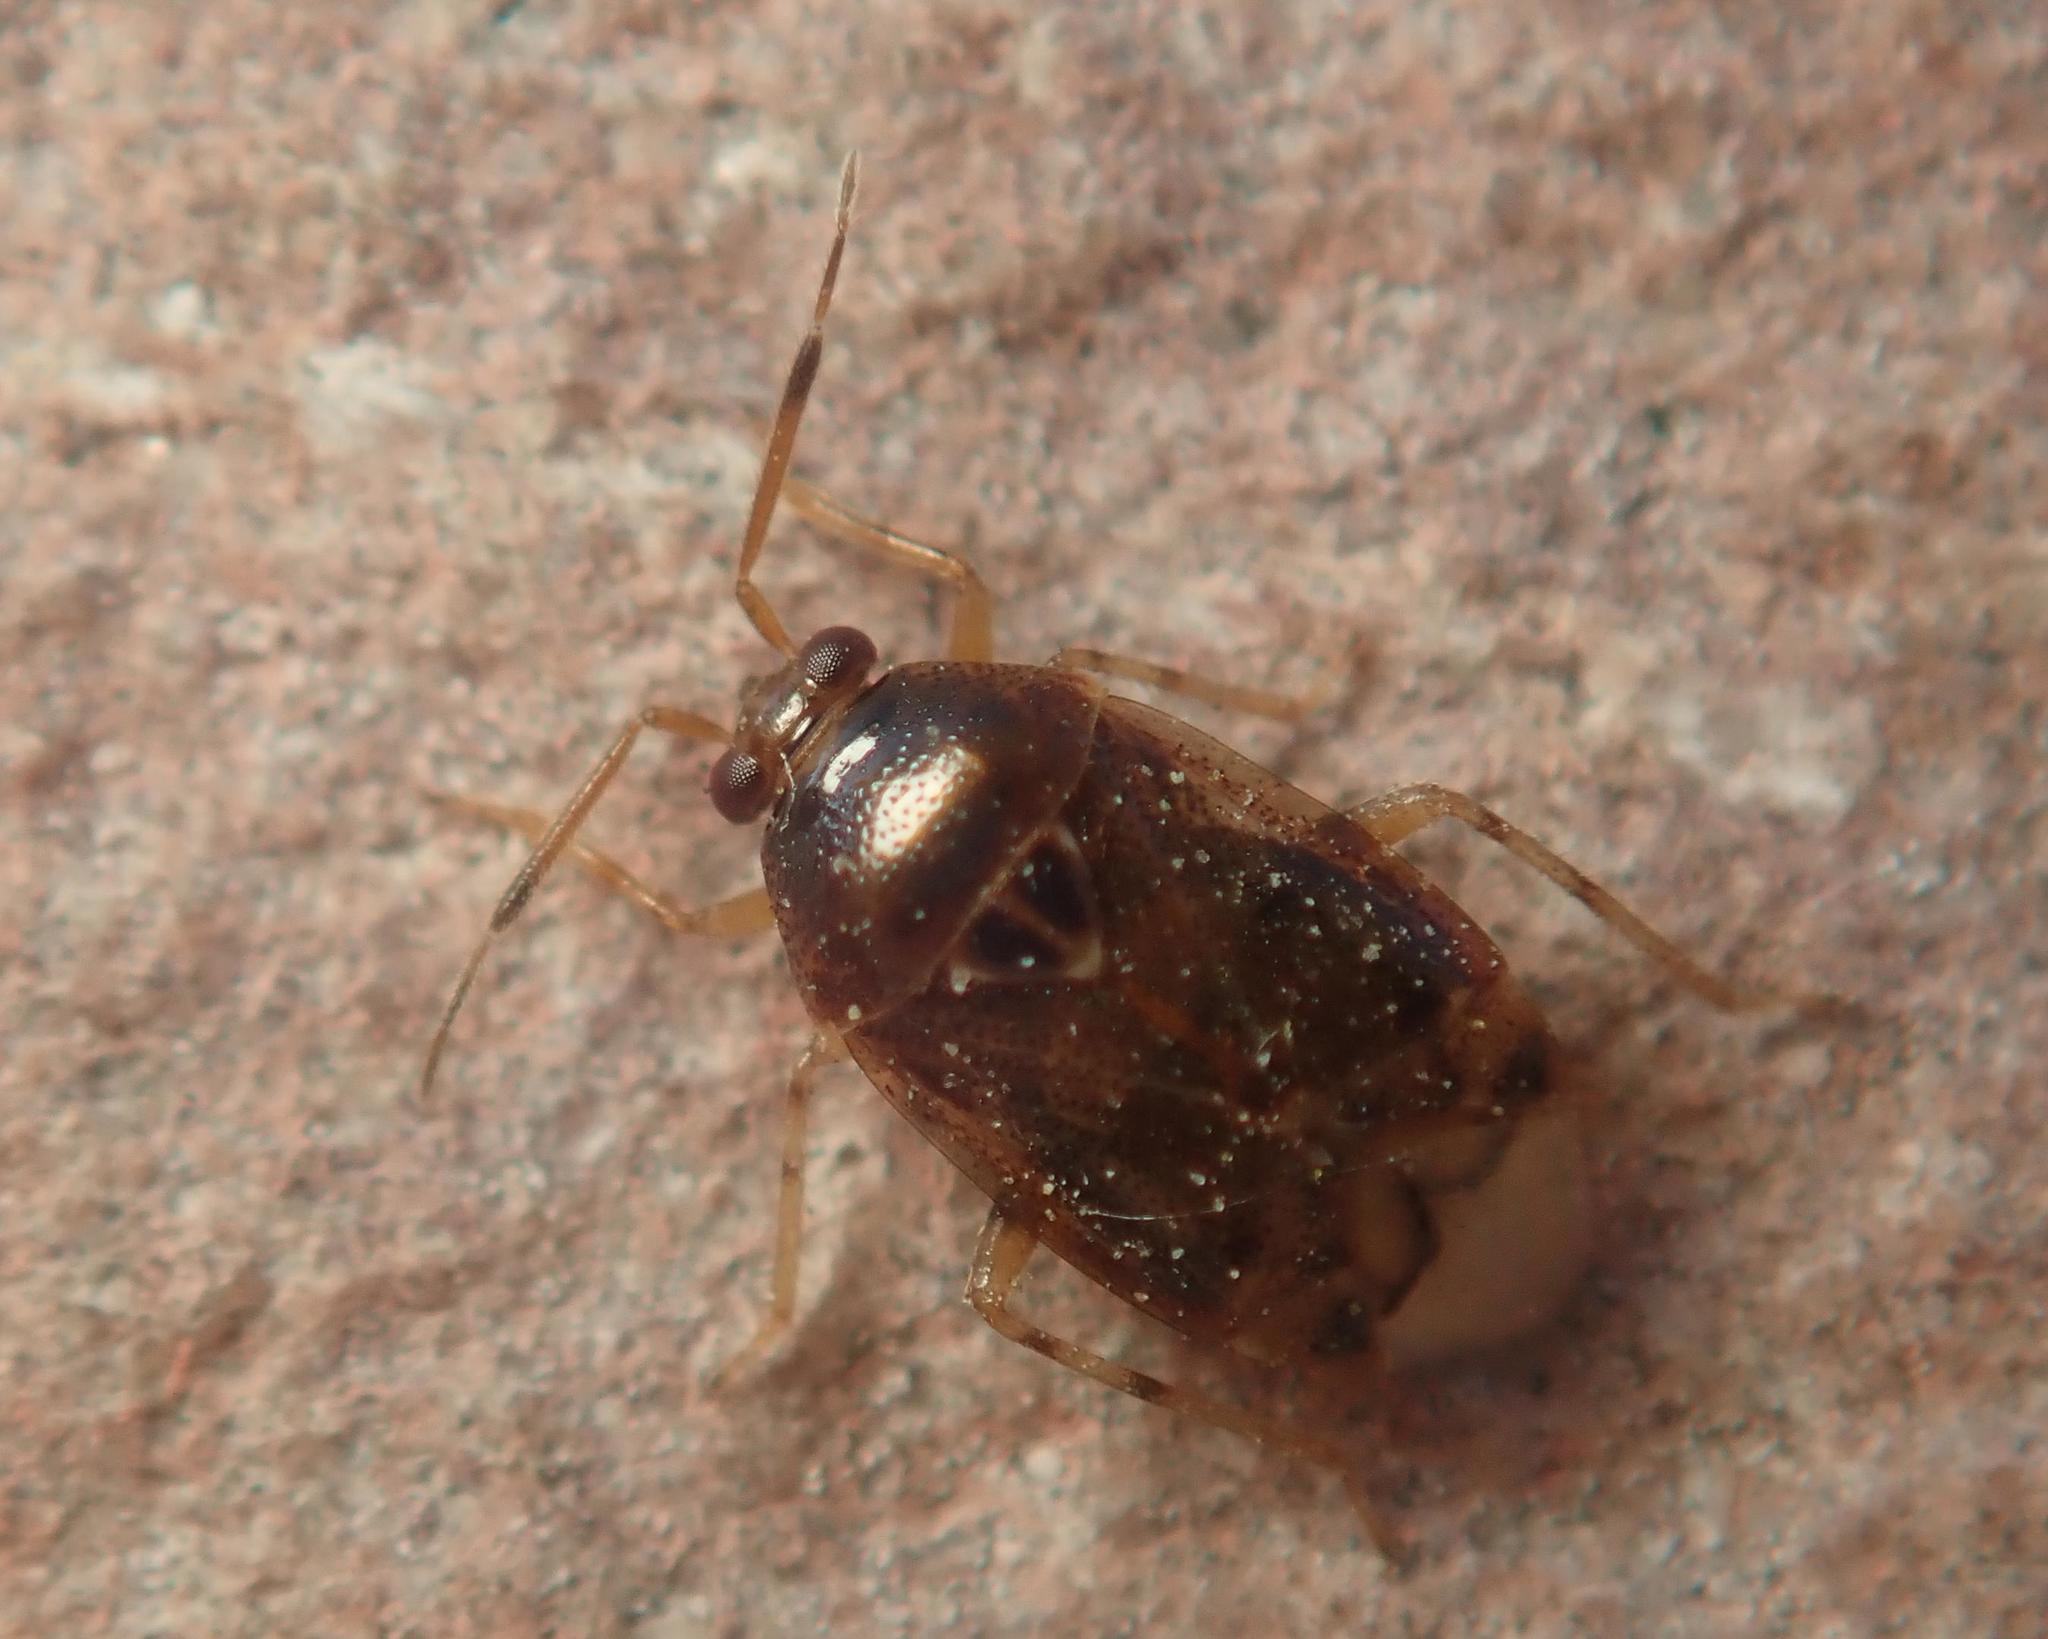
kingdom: Animalia
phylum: Arthropoda
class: Insecta
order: Hemiptera
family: Miridae
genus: Deraeocoris
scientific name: Deraeocoris lutescens
